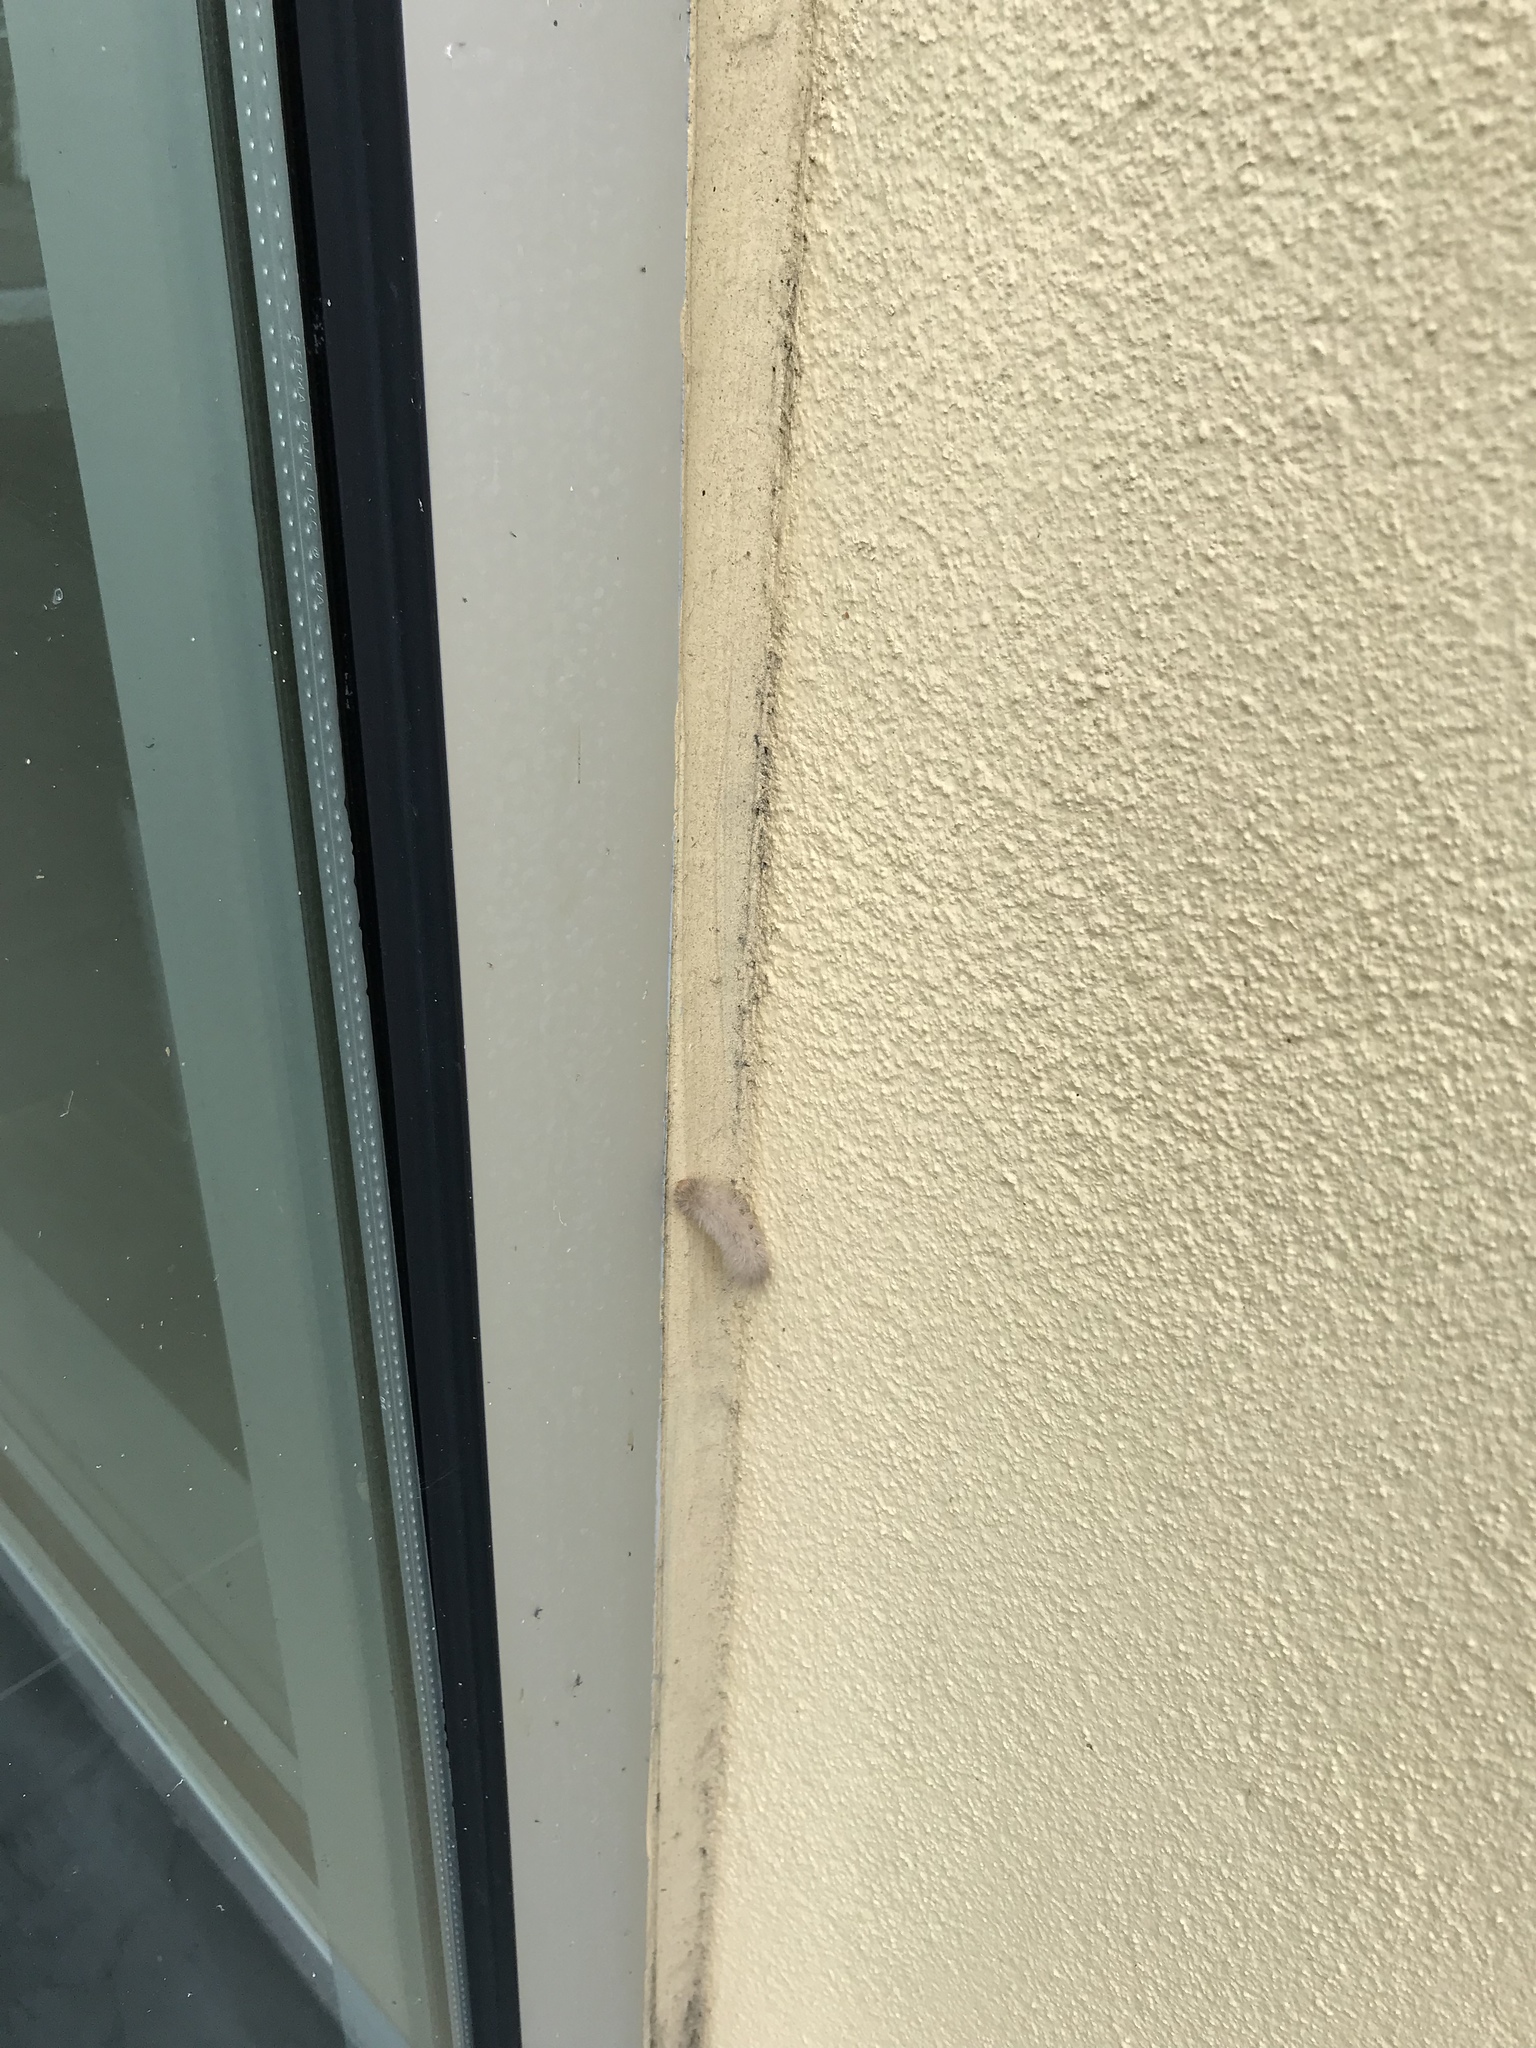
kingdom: Animalia
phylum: Arthropoda
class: Insecta
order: Lepidoptera
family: Erebidae
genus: Cycnia
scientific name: Cycnia tenera
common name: Delicate cycnia moth
